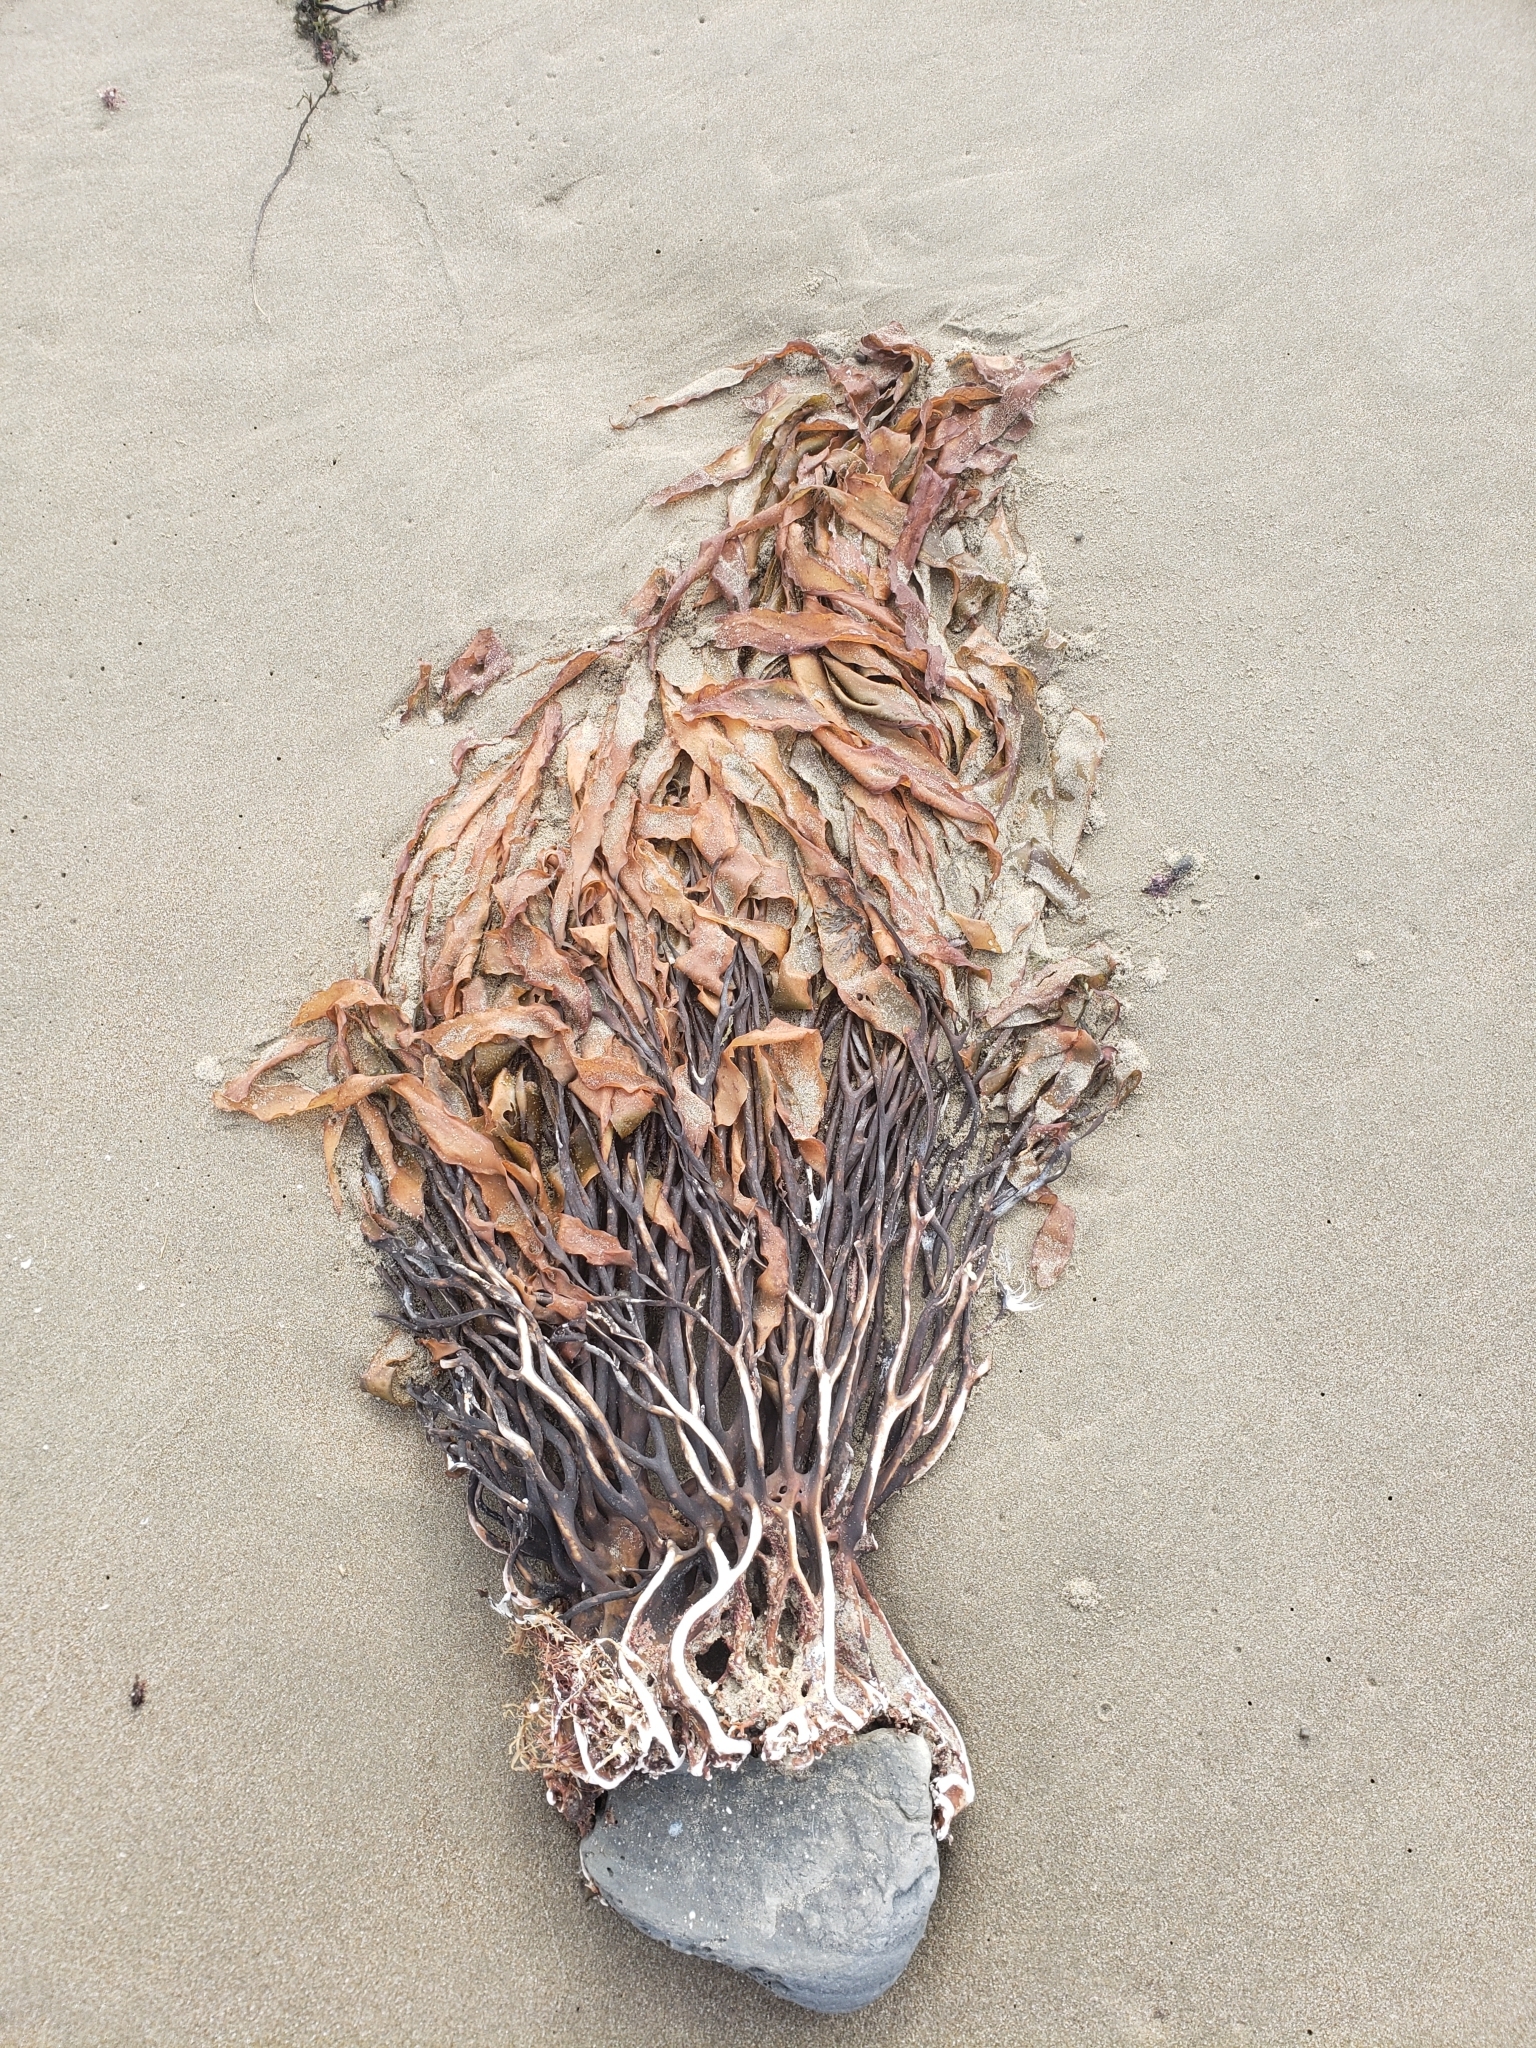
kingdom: Chromista
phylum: Ochrophyta
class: Phaeophyceae
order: Laminariales
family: Lessoniaceae
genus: Lessonia
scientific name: Lessonia variegata
